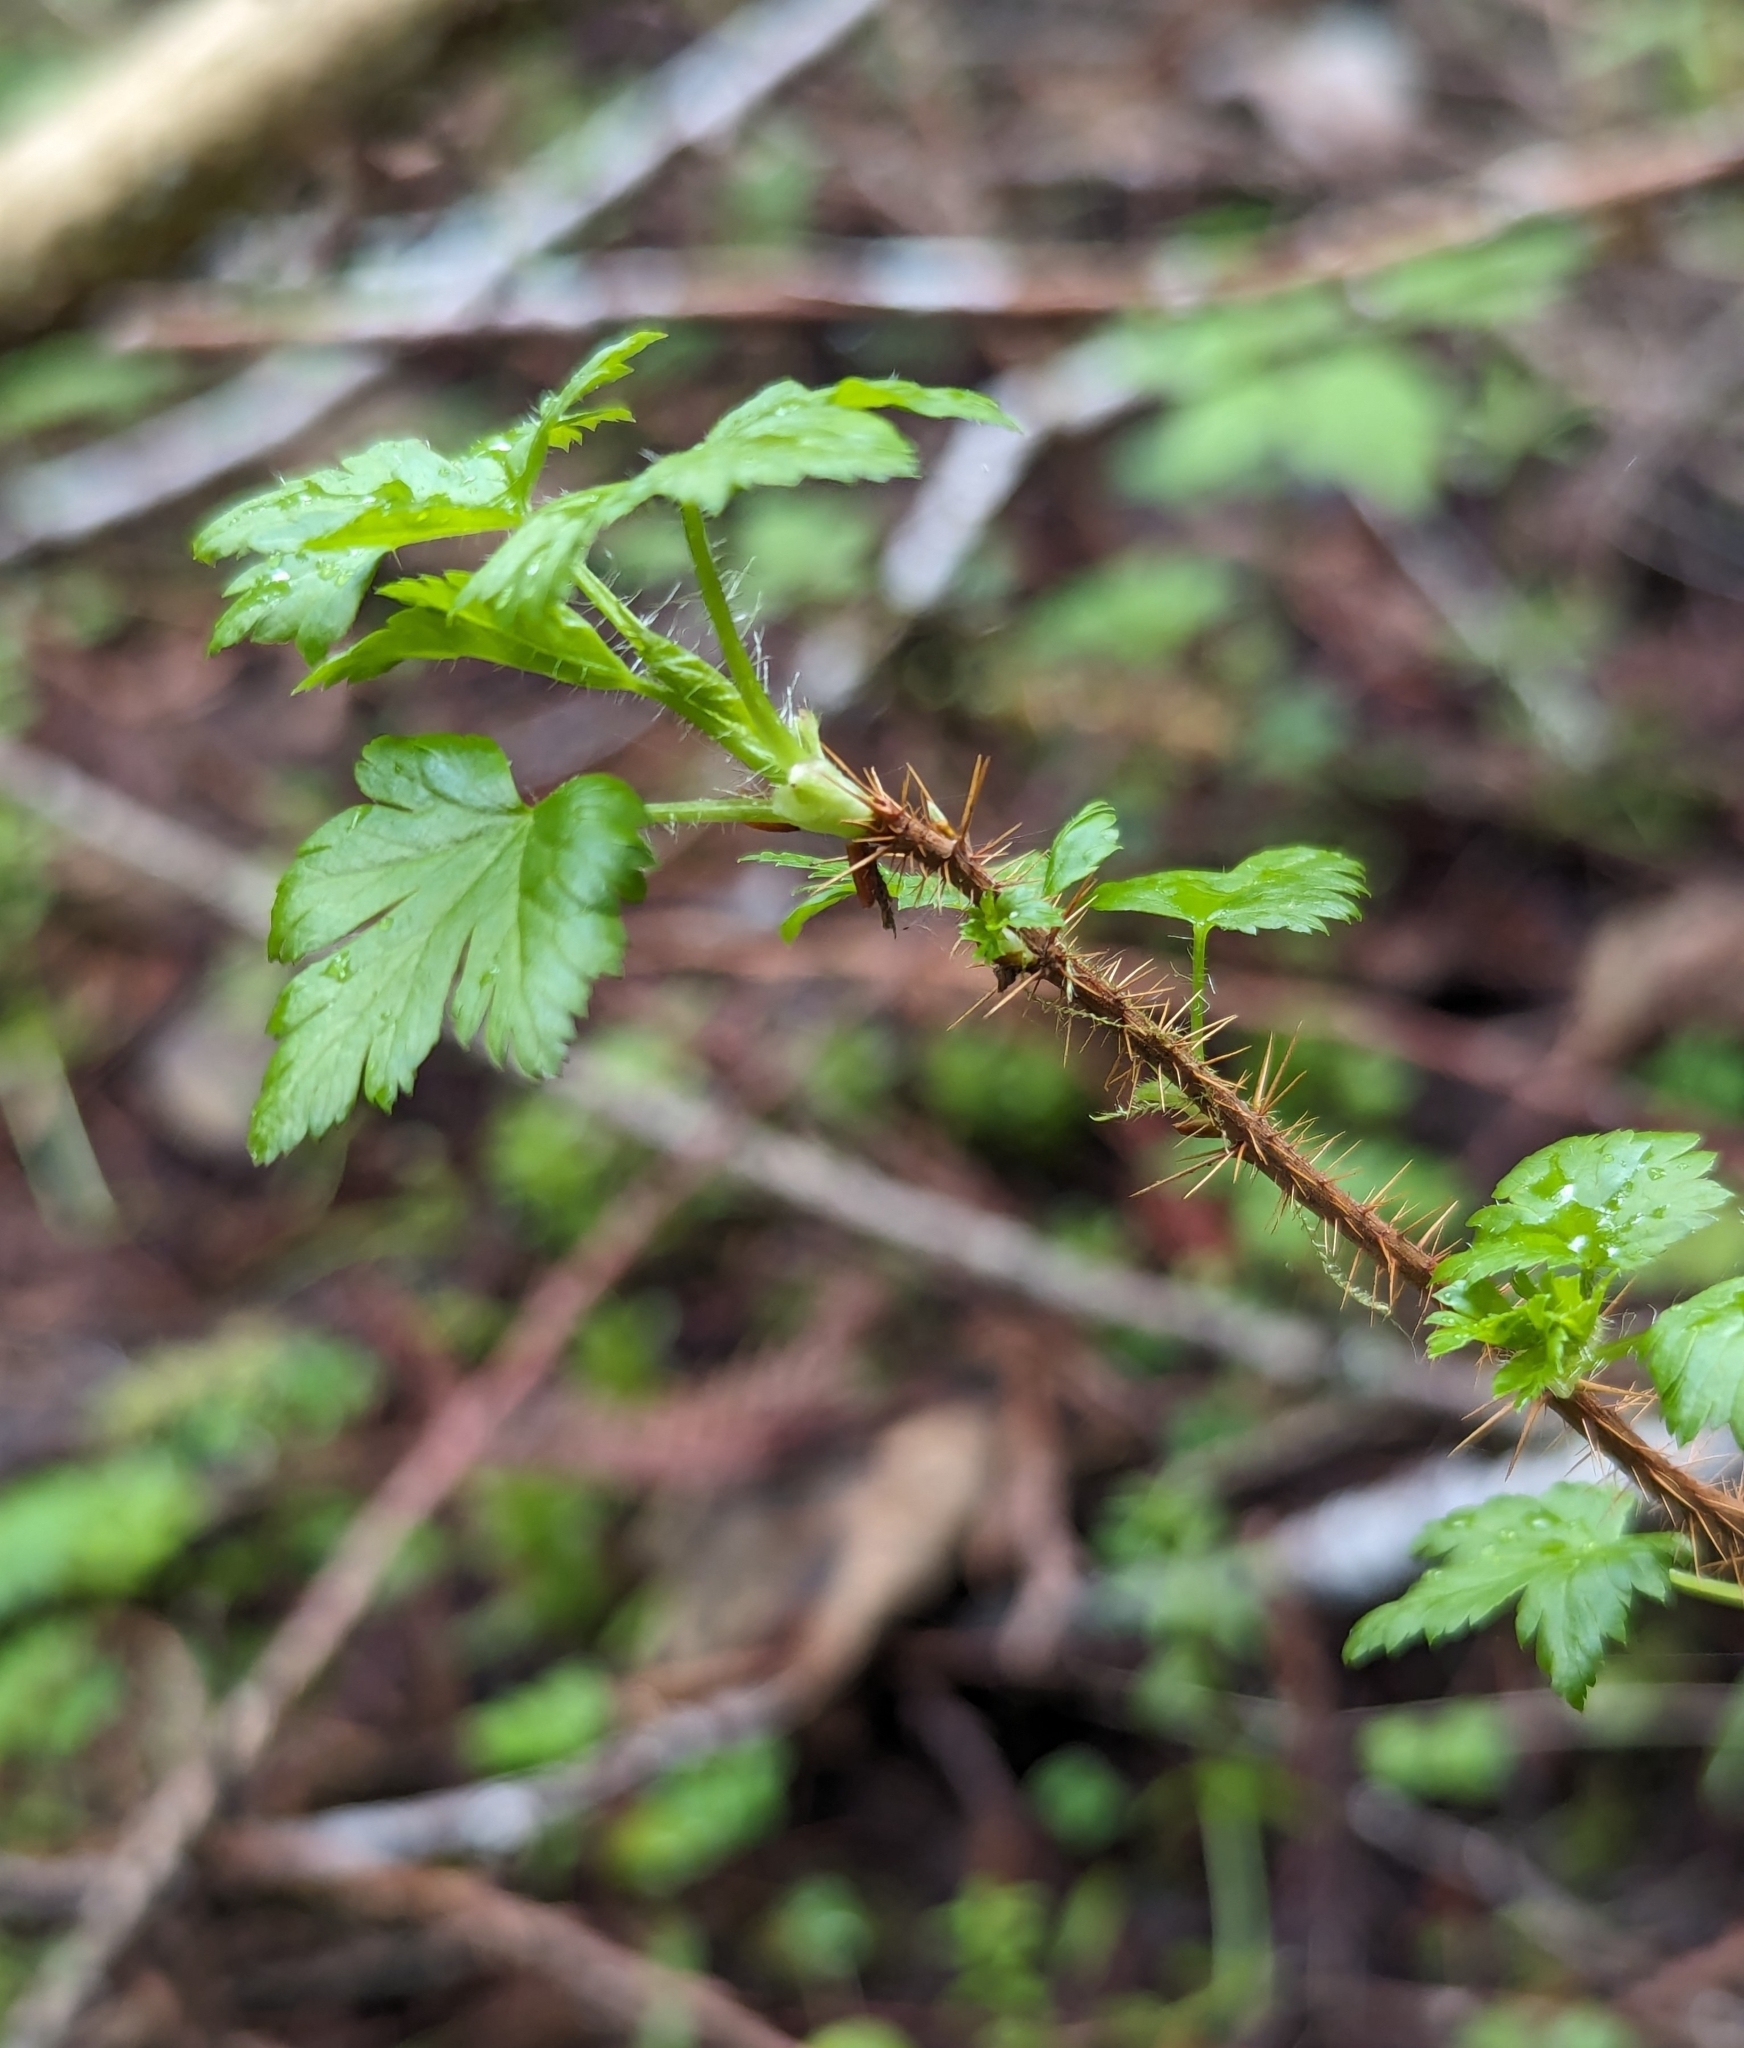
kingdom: Plantae
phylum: Tracheophyta
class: Magnoliopsida
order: Saxifragales
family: Grossulariaceae
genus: Ribes
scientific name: Ribes lacustre
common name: Black gooseberry
